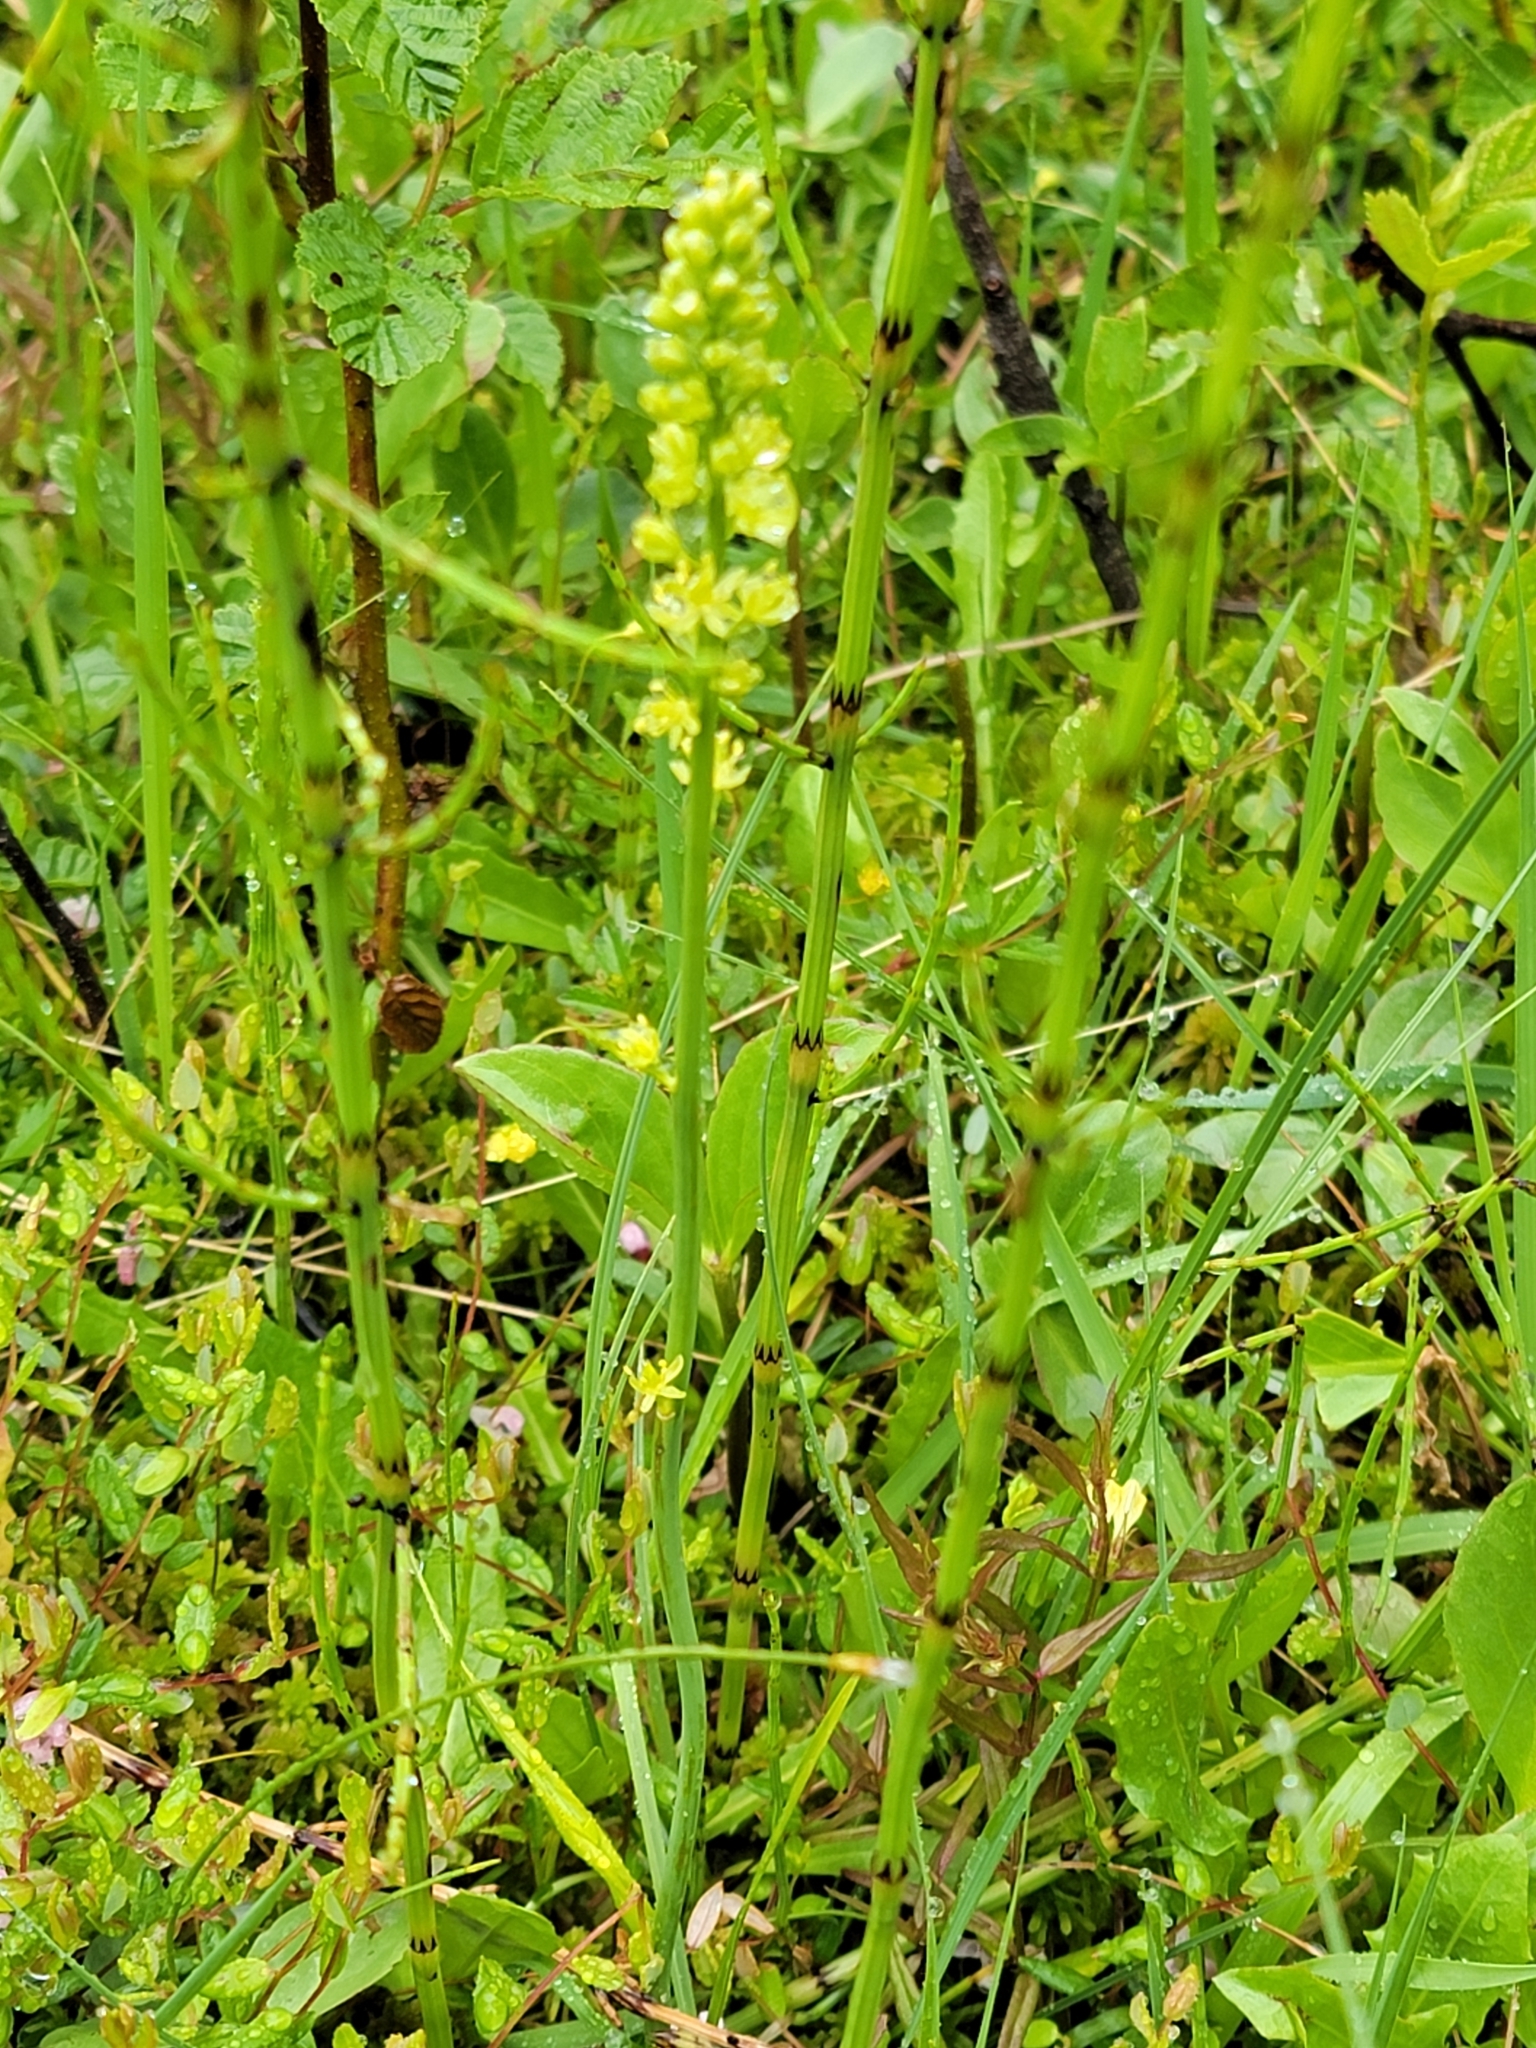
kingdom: Plantae
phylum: Tracheophyta
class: Liliopsida
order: Alismatales
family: Tofieldiaceae
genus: Tofieldia
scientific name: Tofieldia calyculata
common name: German-asphodel
